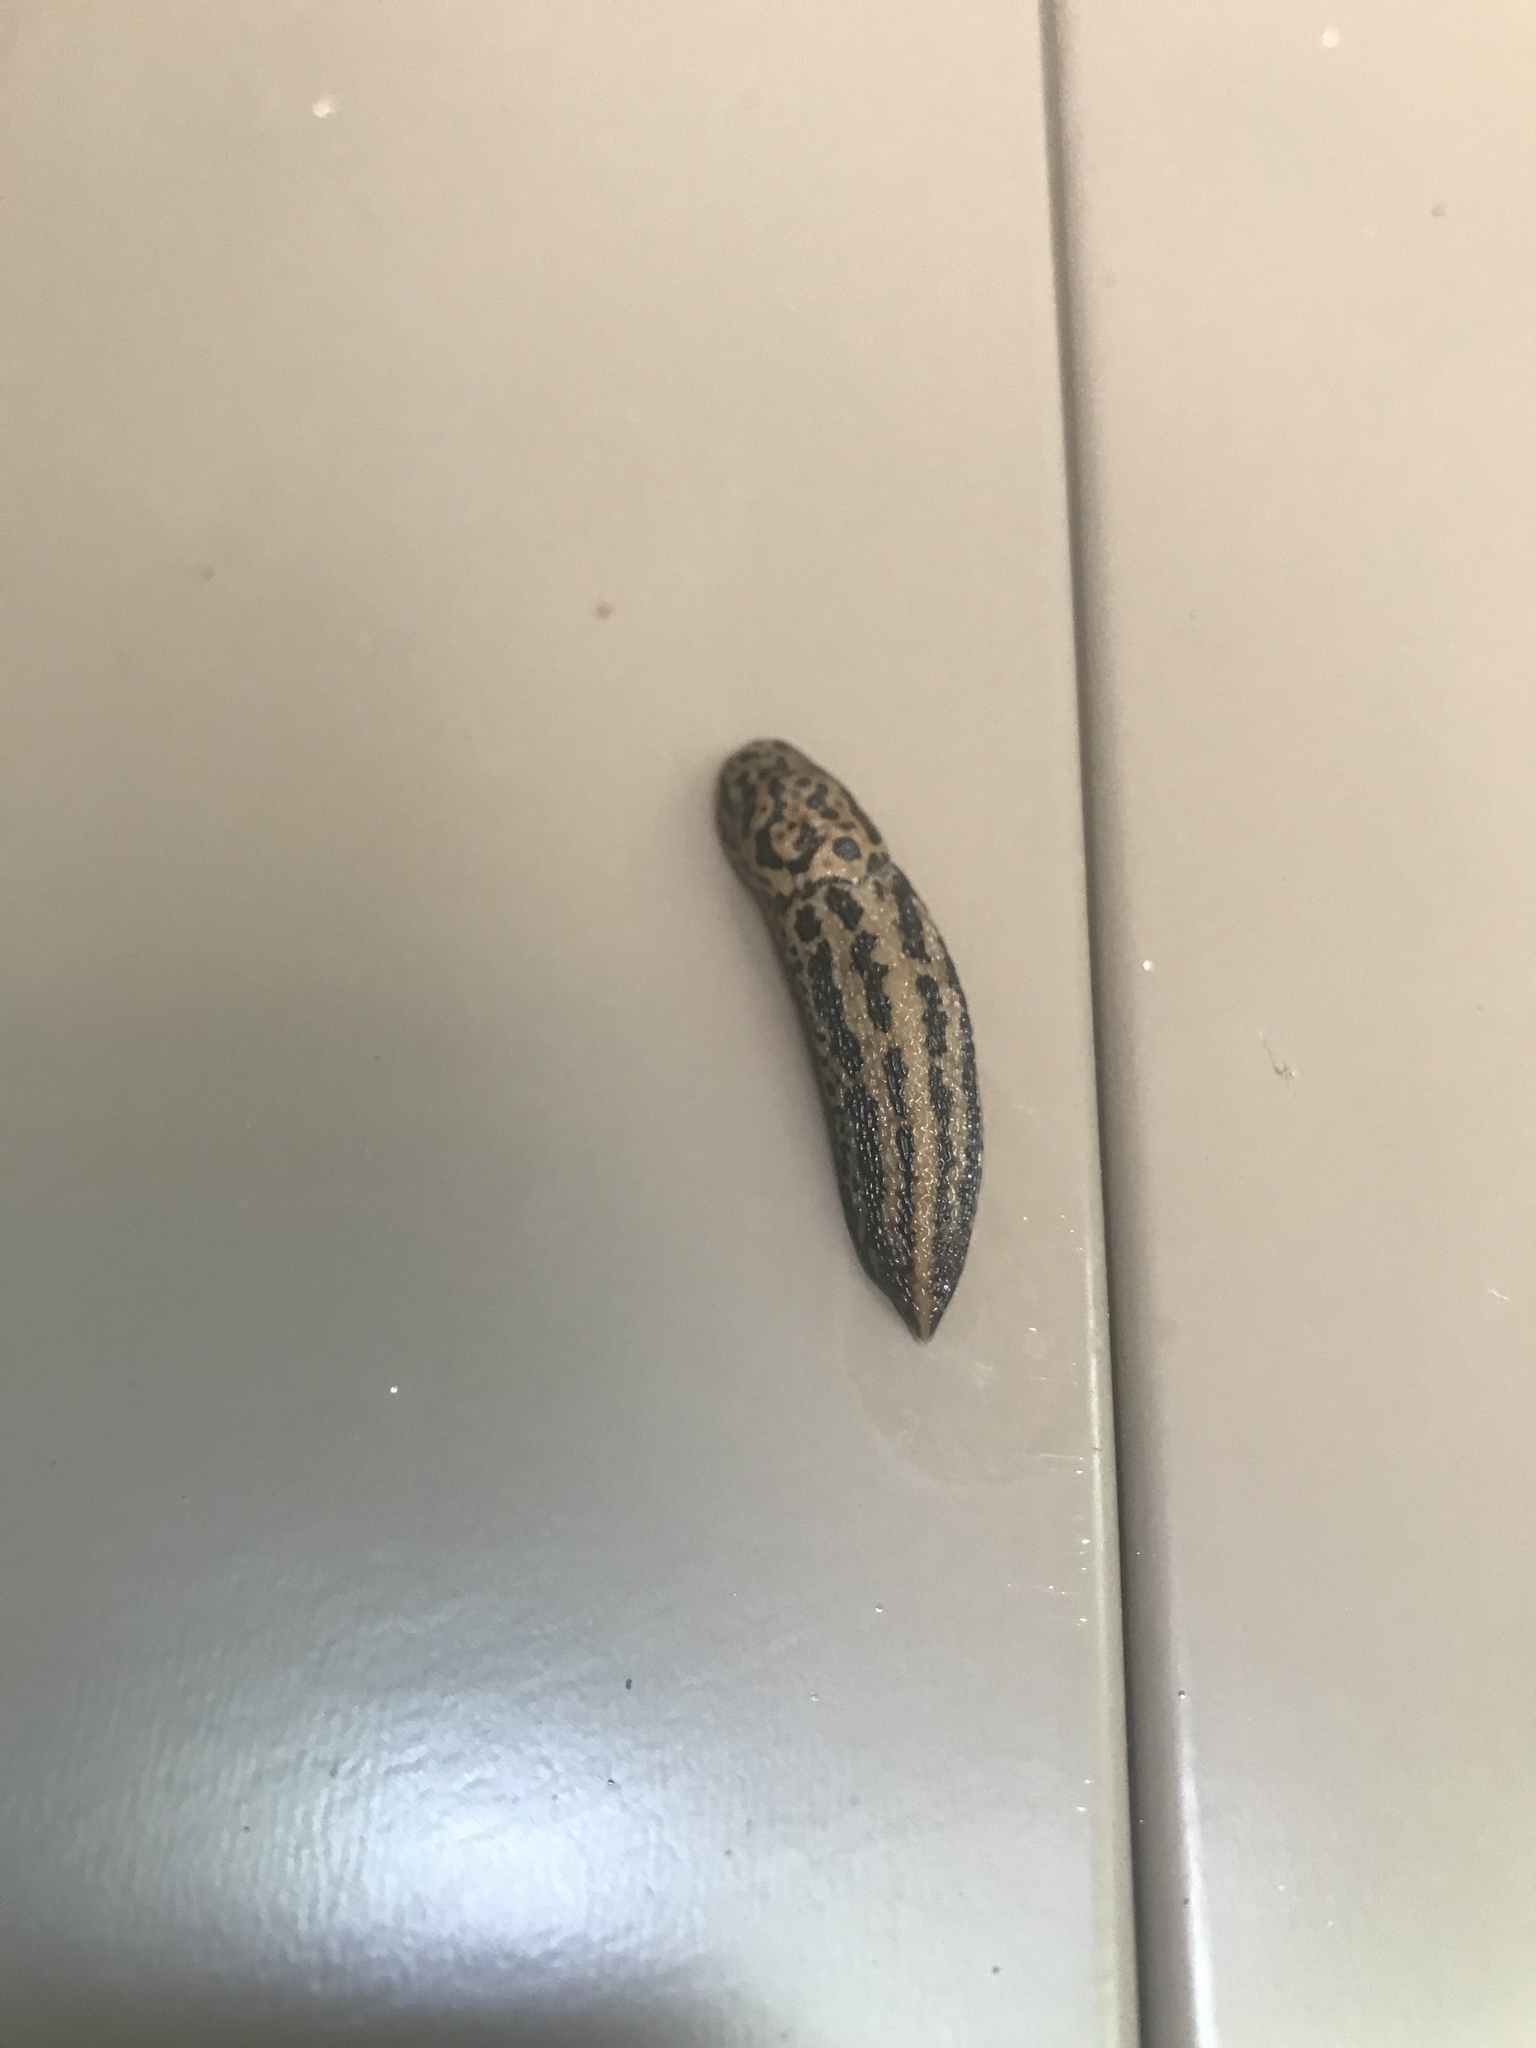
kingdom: Animalia
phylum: Mollusca
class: Gastropoda
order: Stylommatophora
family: Limacidae
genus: Limax
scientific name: Limax maximus
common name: Great grey slug
